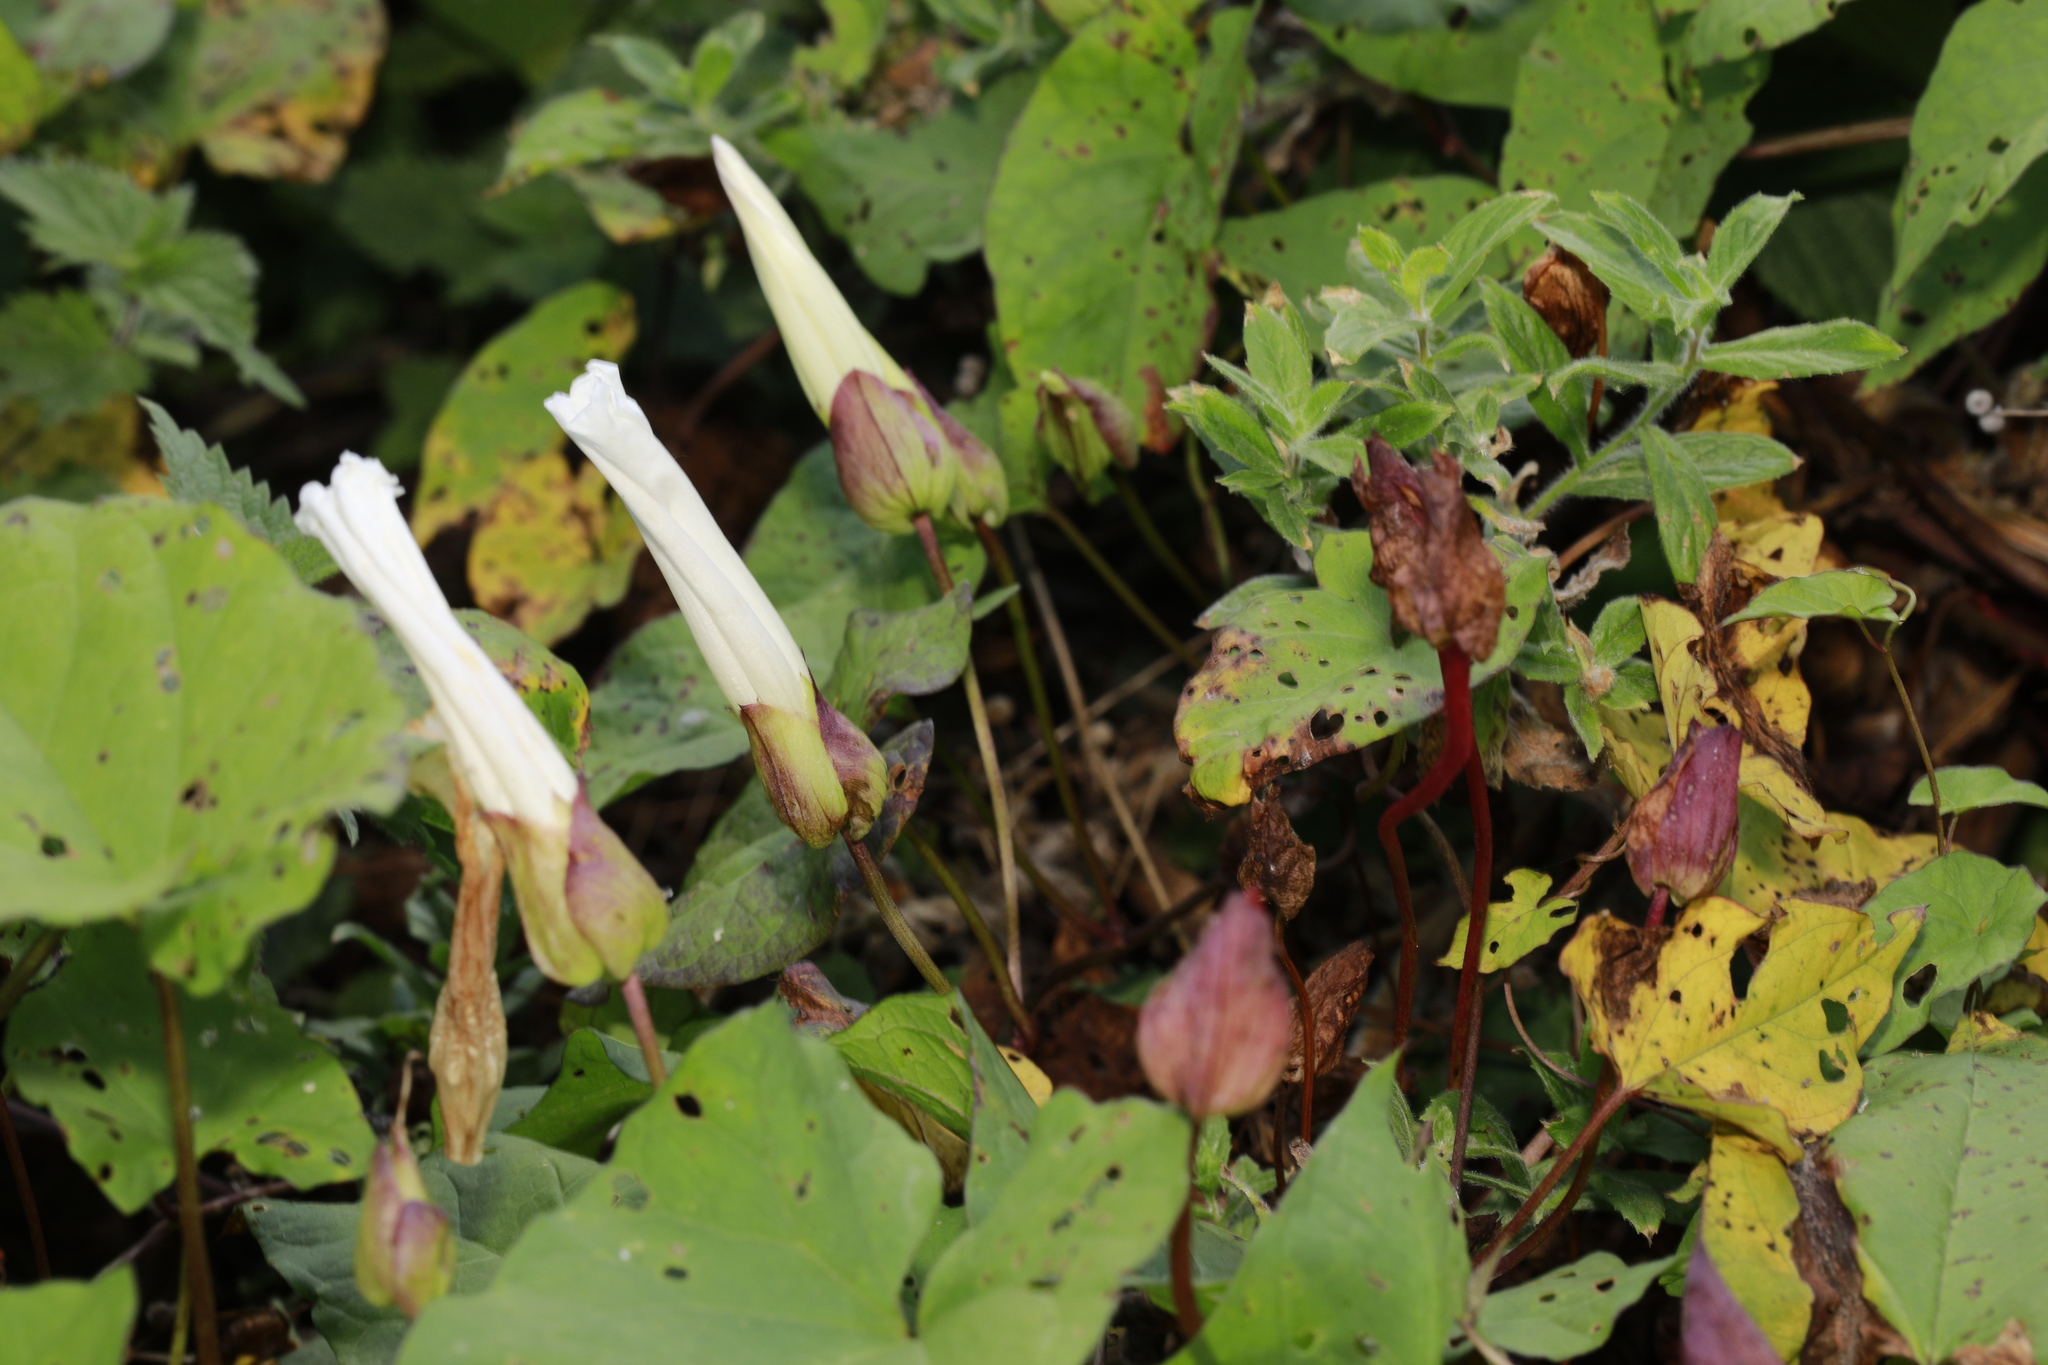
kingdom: Plantae
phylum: Tracheophyta
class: Magnoliopsida
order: Solanales
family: Convolvulaceae
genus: Calystegia
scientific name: Calystegia silvatica
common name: Large bindweed
